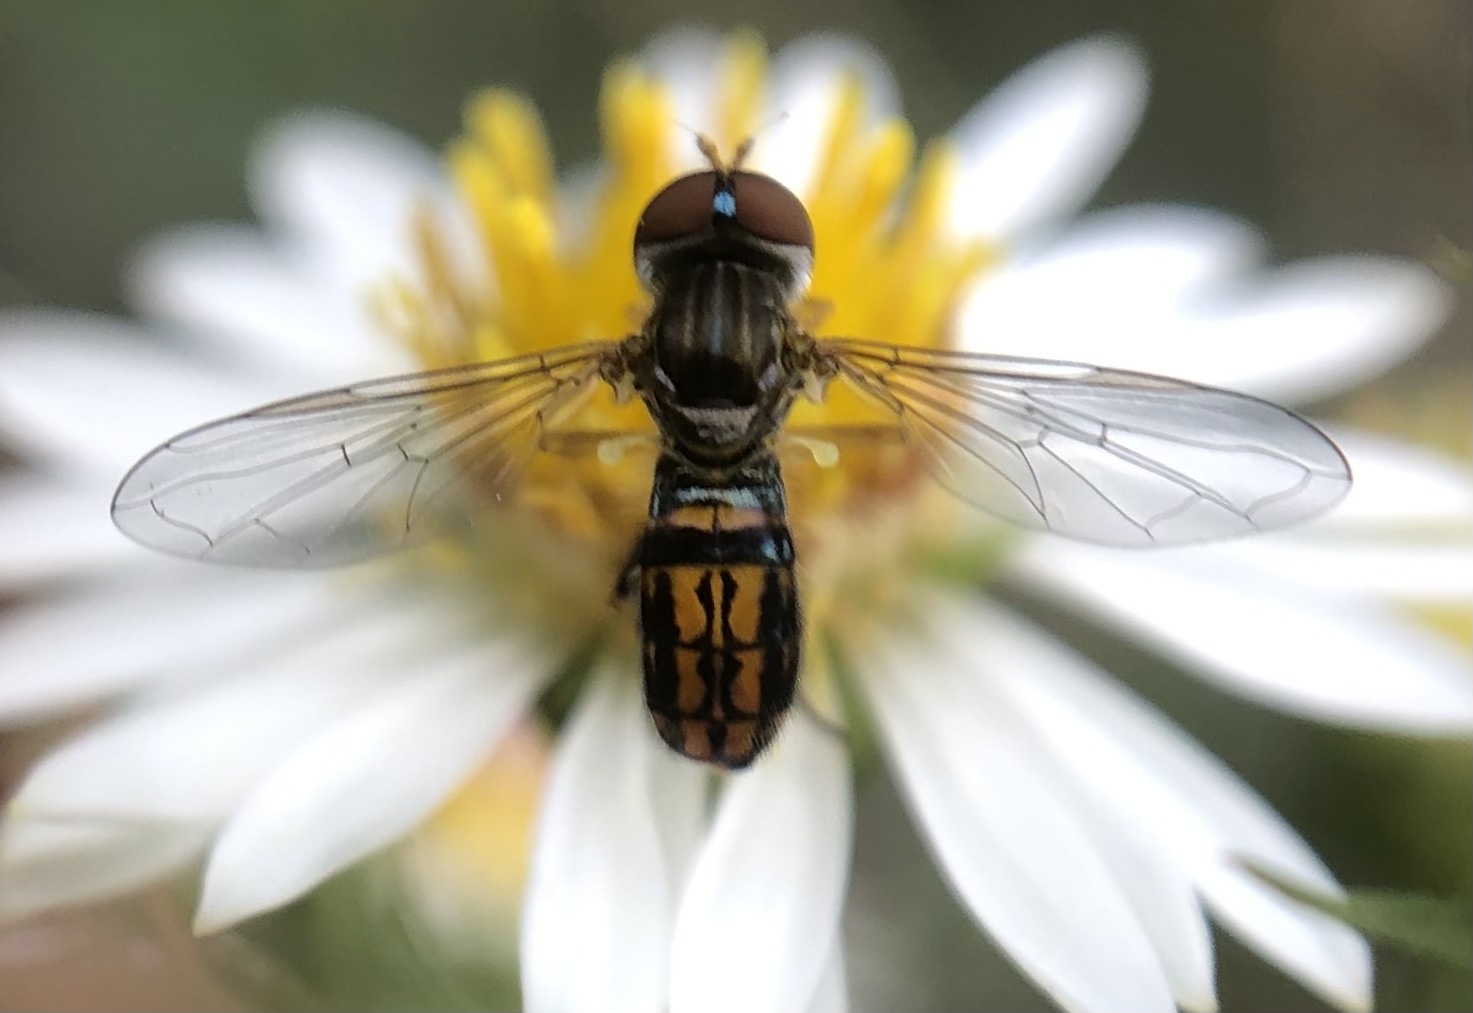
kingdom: Animalia
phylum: Arthropoda
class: Insecta
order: Diptera
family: Syrphidae
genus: Toxomerus
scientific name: Toxomerus boscii
